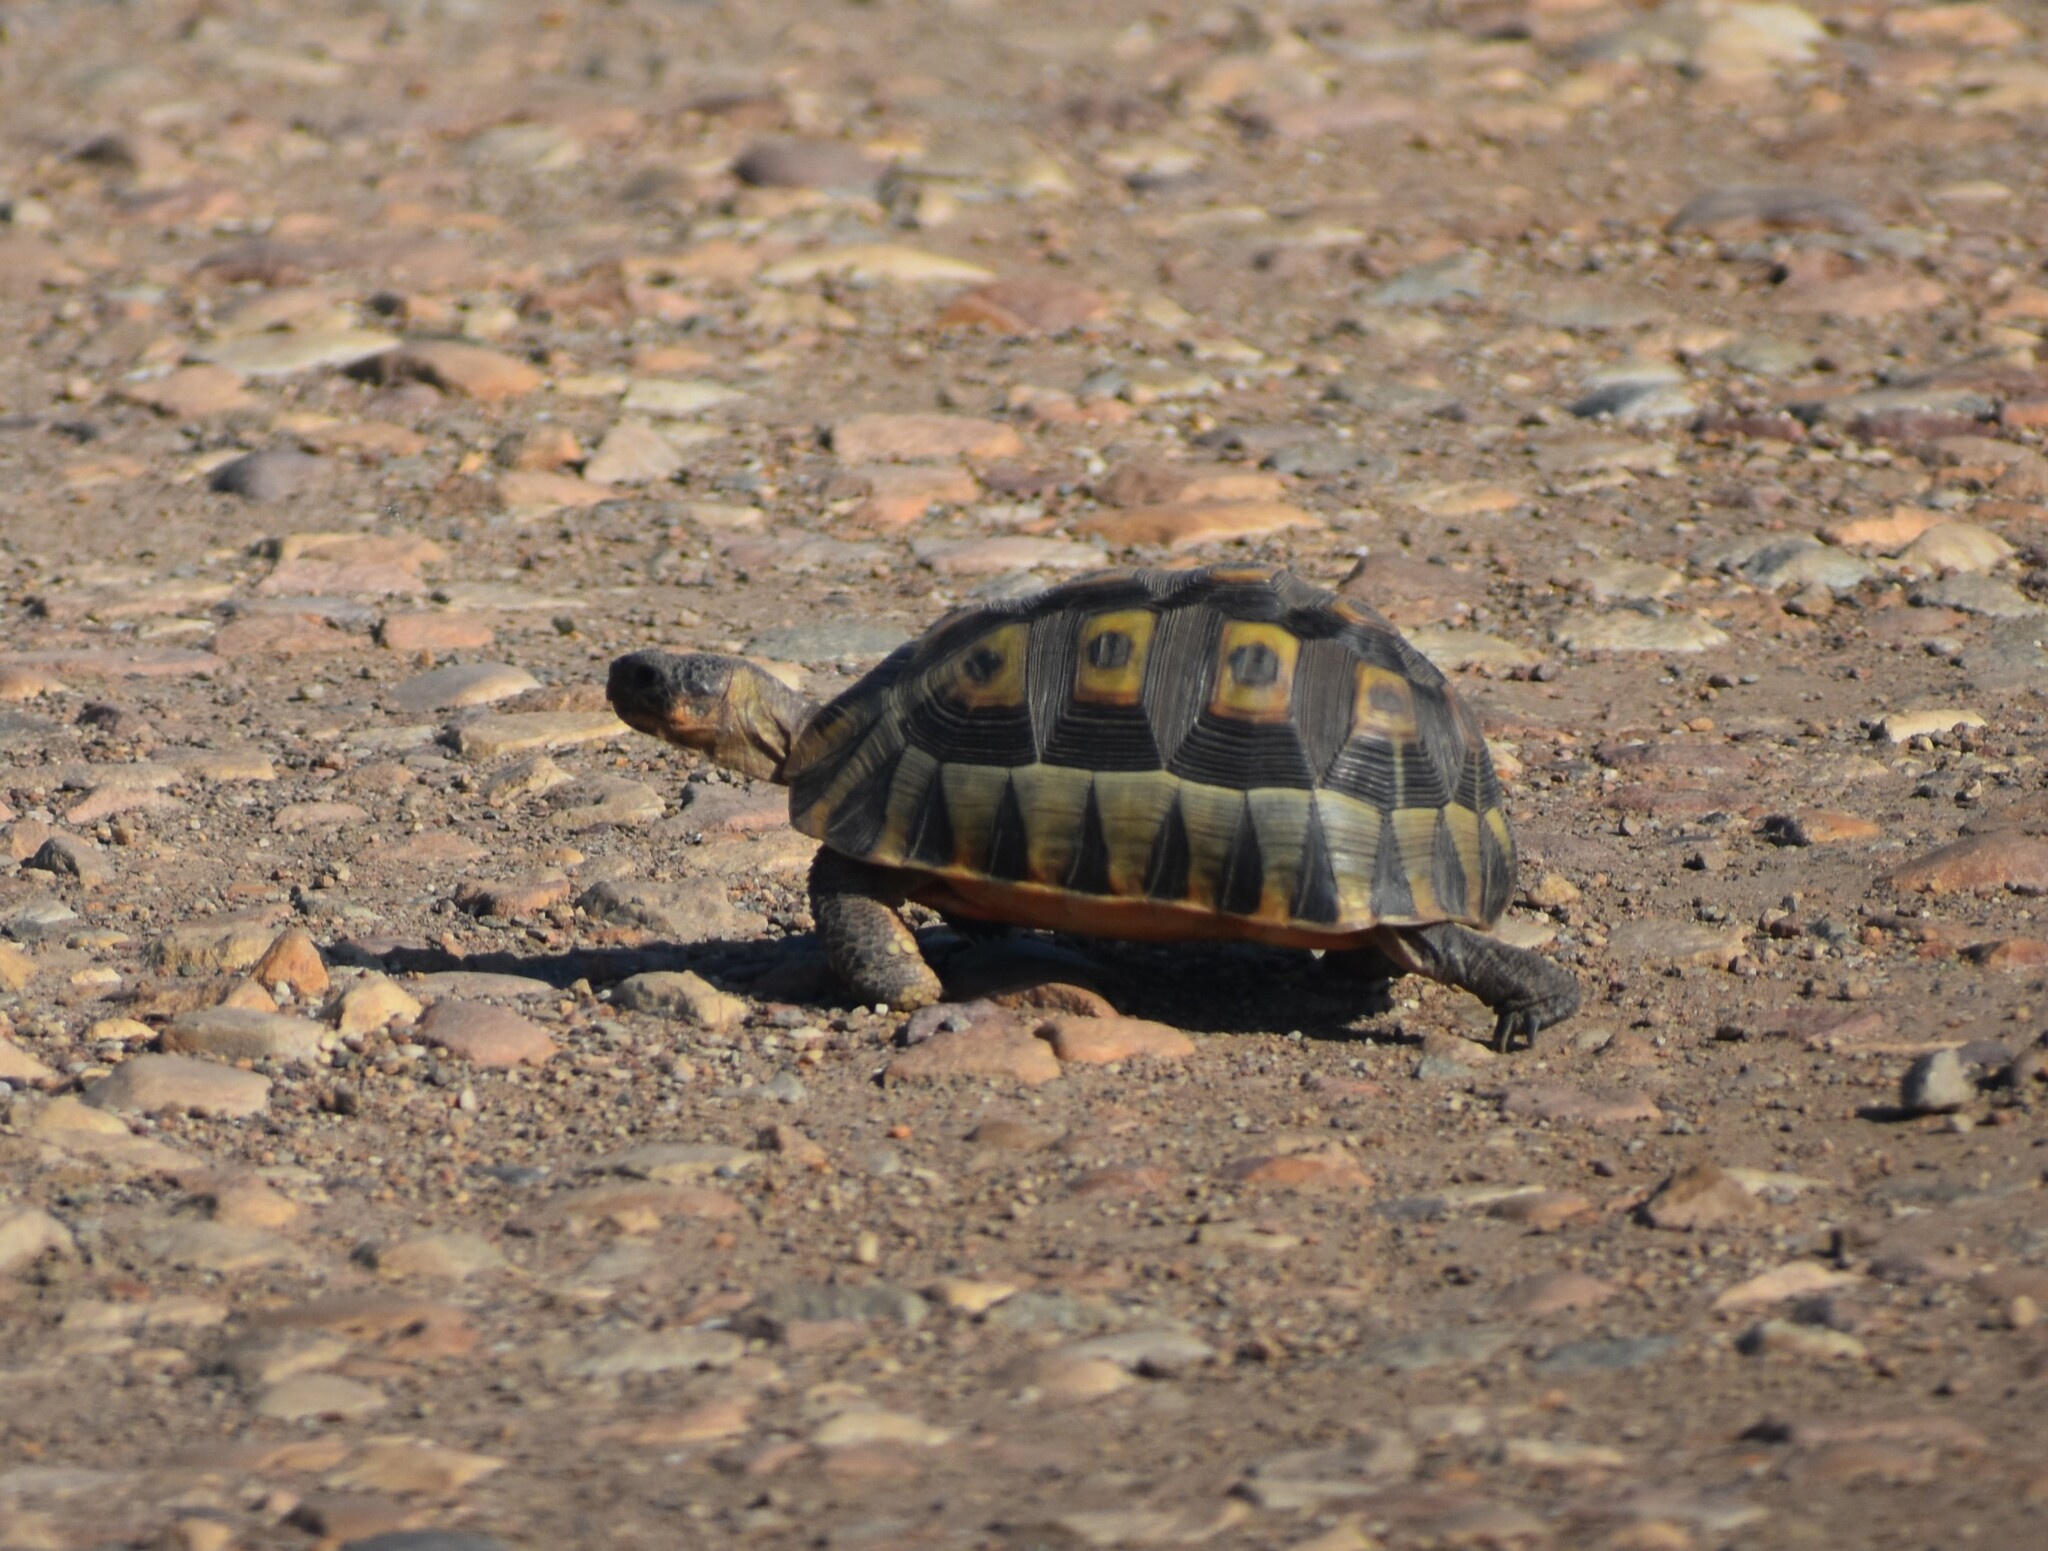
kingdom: Animalia
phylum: Chordata
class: Testudines
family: Testudinidae
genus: Chersina
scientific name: Chersina angulata
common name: South african bowsprit tortoise
